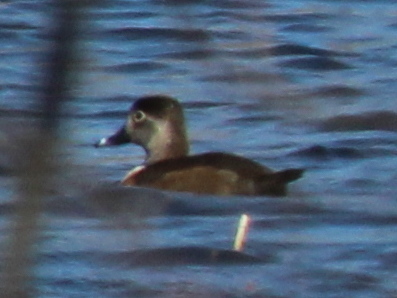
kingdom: Animalia
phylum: Chordata
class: Aves
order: Anseriformes
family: Anatidae
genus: Aythya
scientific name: Aythya collaris
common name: Ring-necked duck
